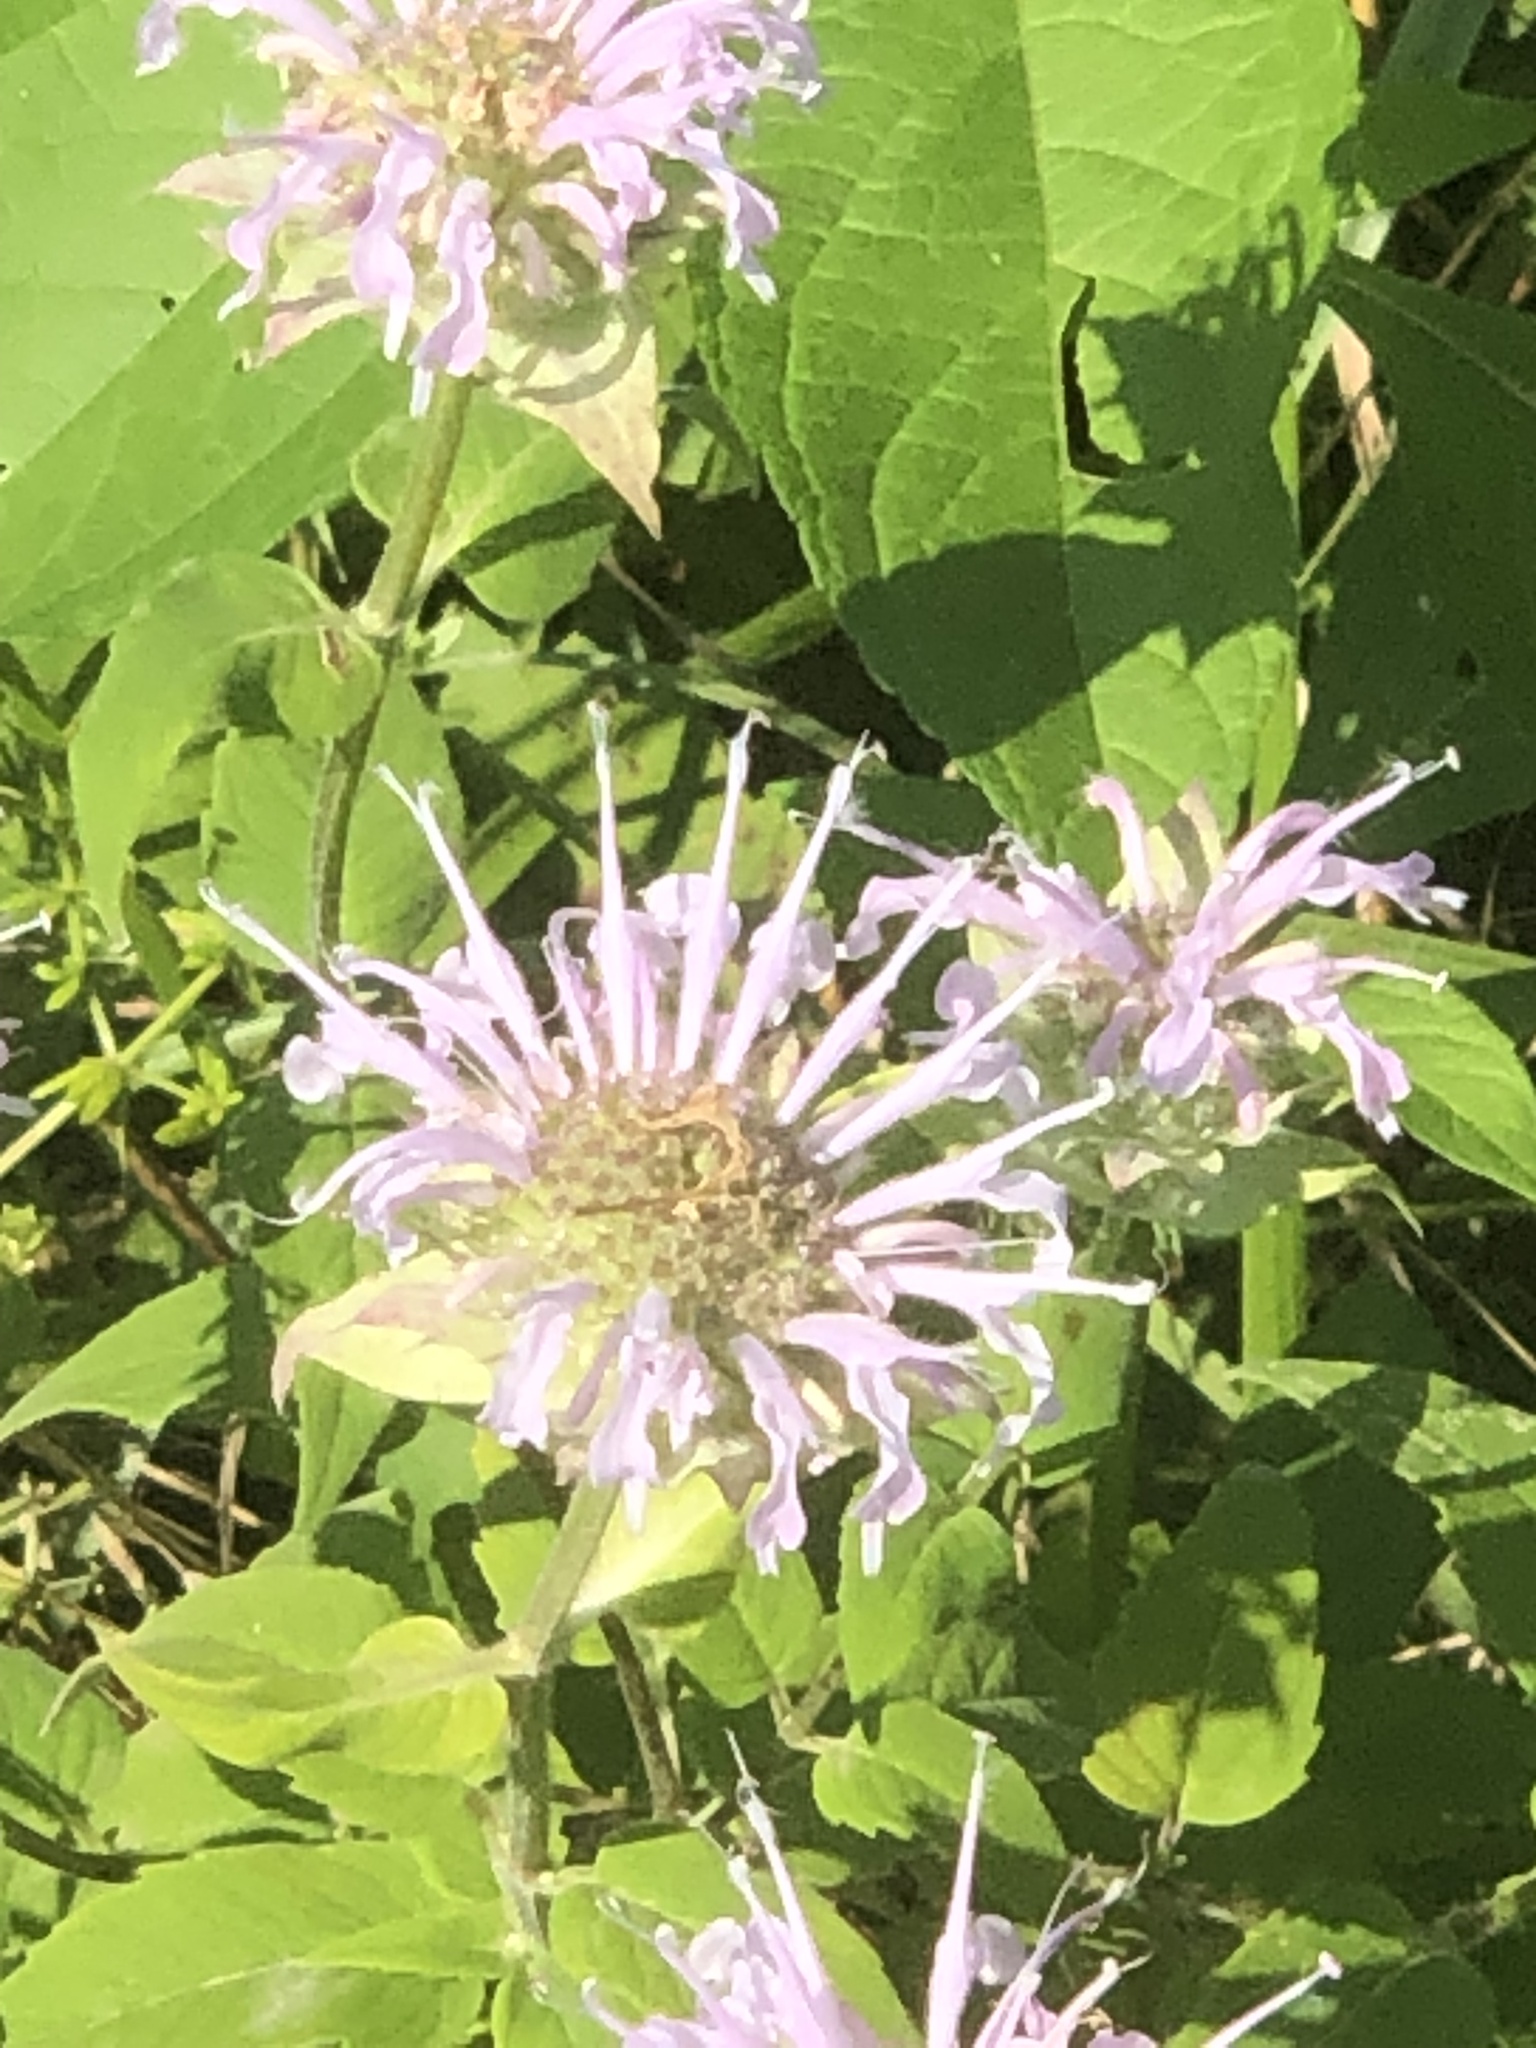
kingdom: Plantae
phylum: Tracheophyta
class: Magnoliopsida
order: Lamiales
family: Lamiaceae
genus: Monarda
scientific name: Monarda fistulosa
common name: Purple beebalm
